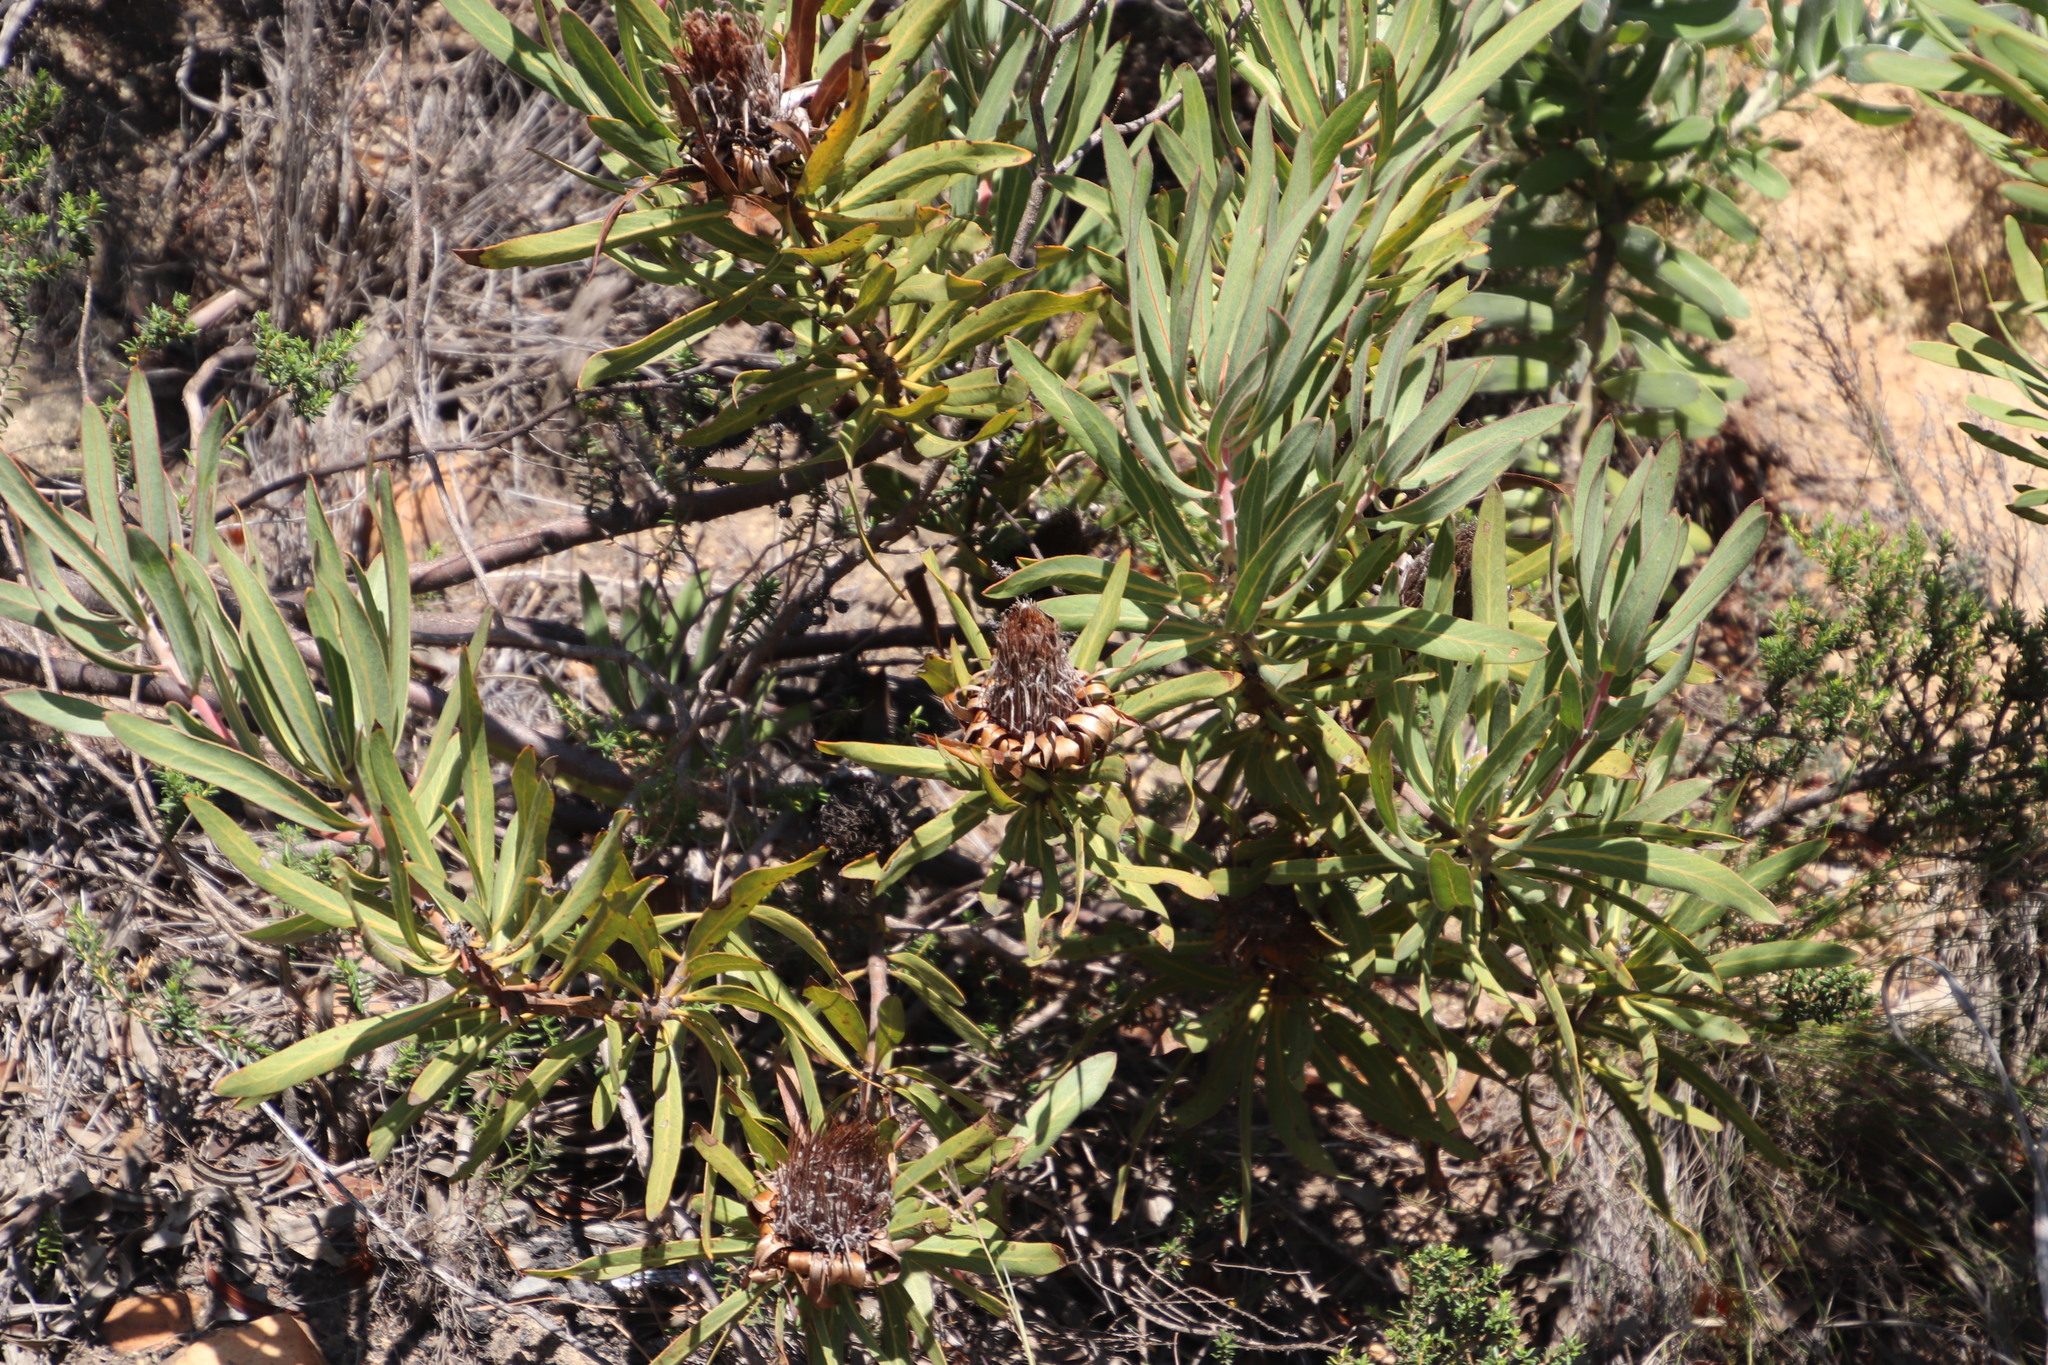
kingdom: Plantae
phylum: Tracheophyta
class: Magnoliopsida
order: Proteales
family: Proteaceae
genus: Protea
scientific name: Protea burchellii
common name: Burchell's sugarbush
